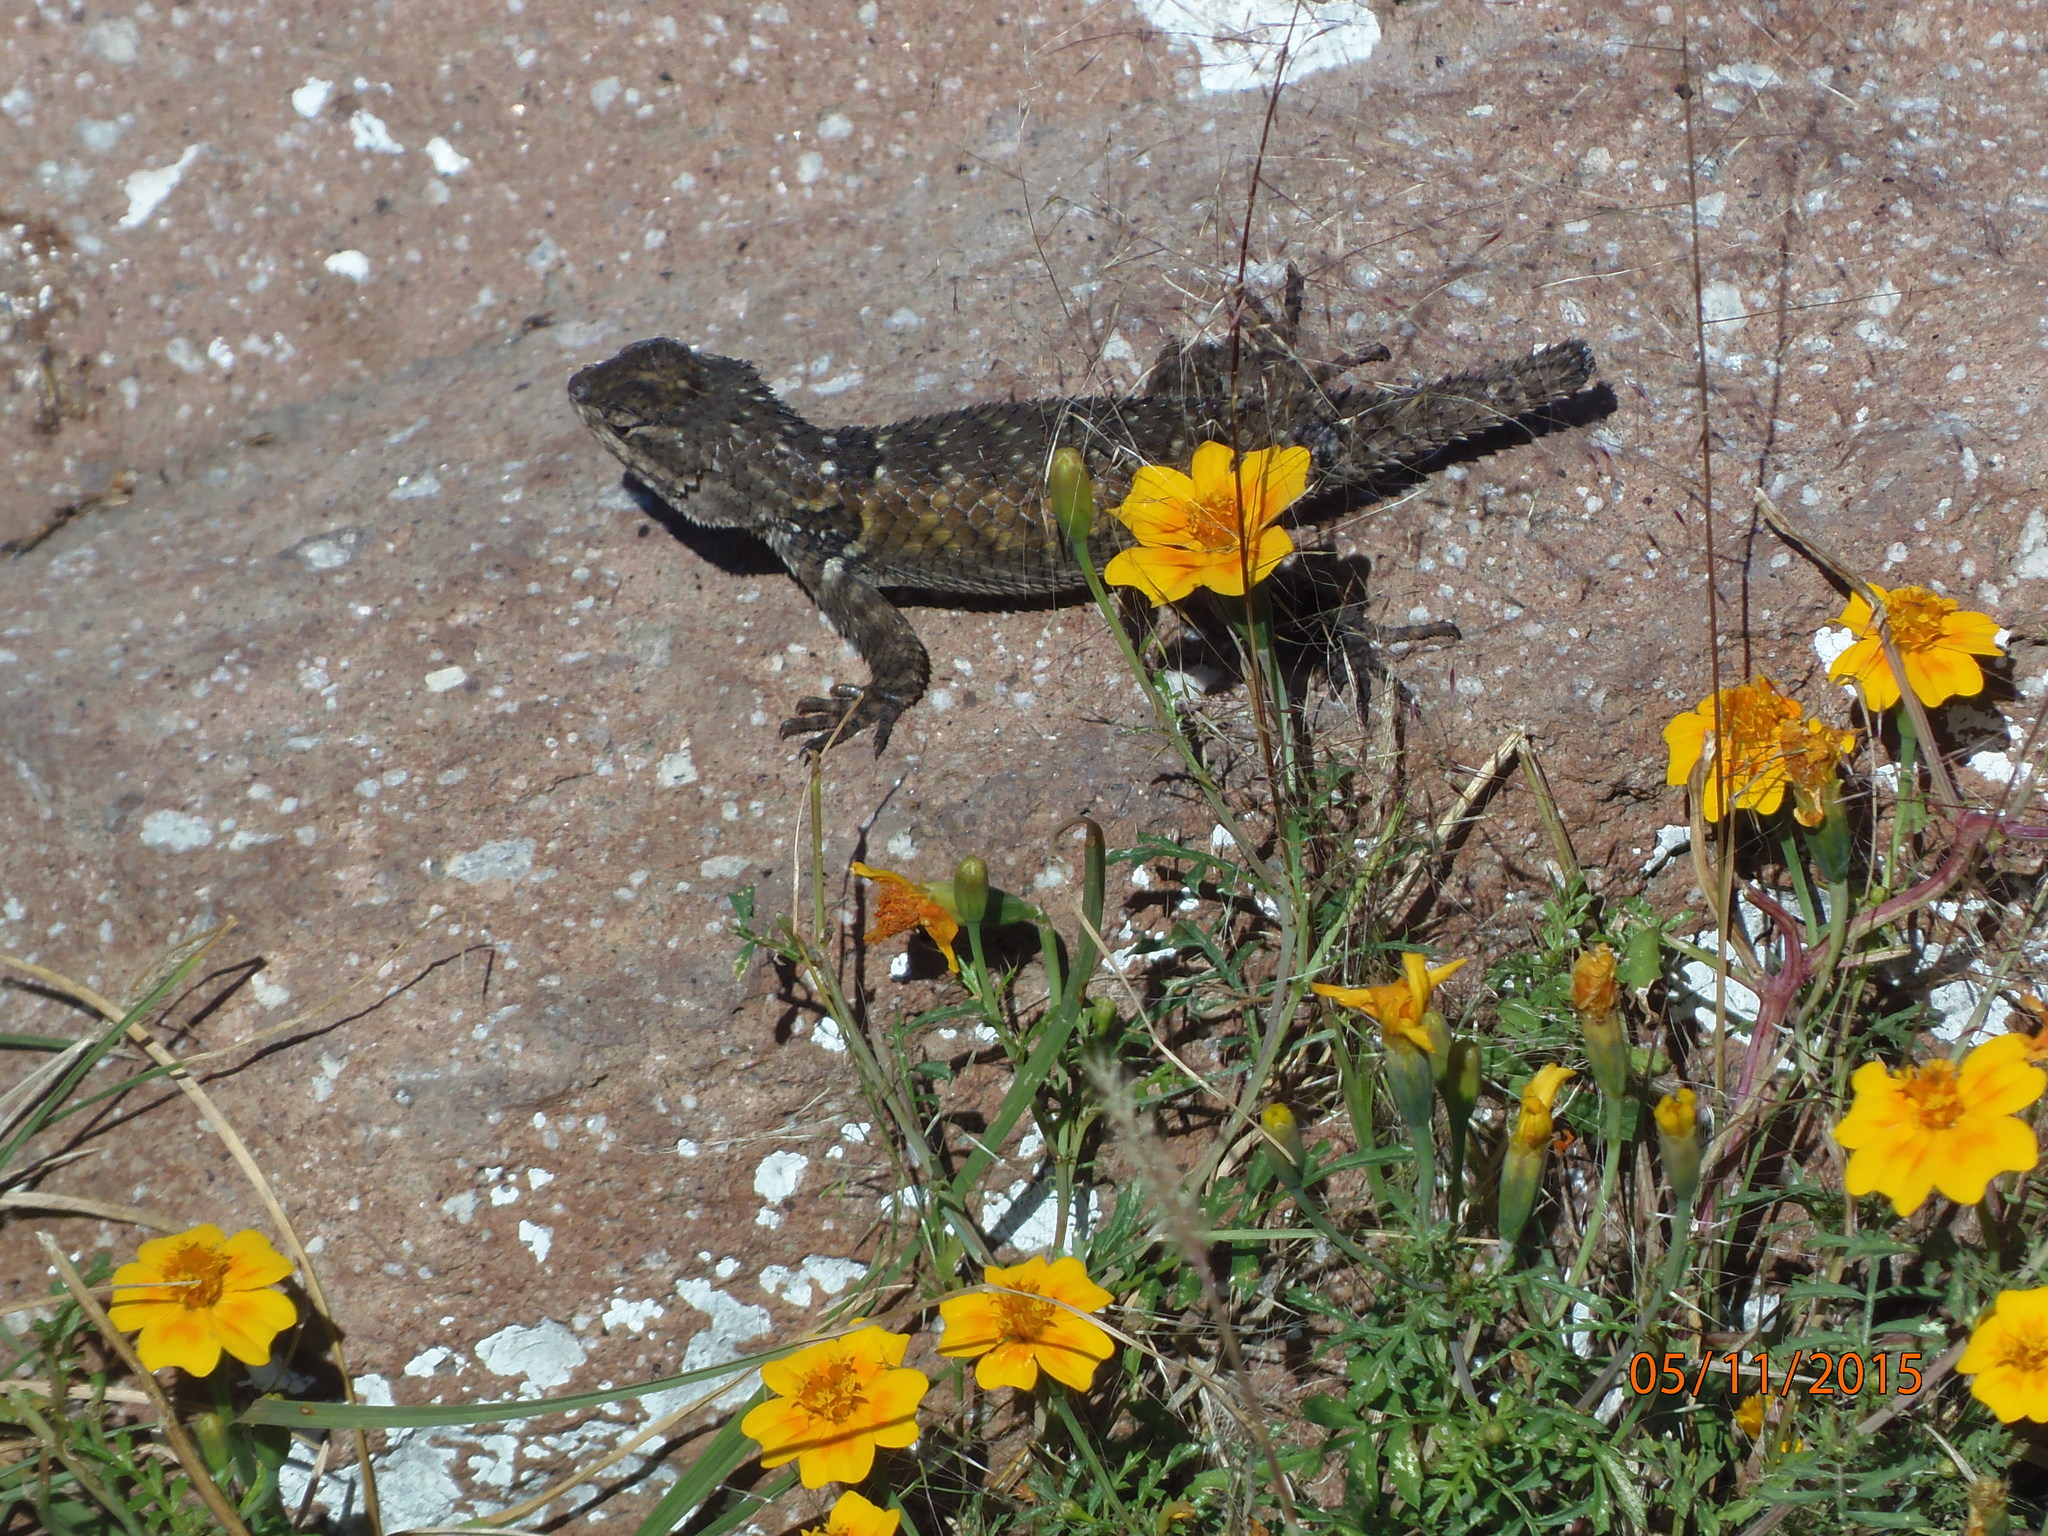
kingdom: Animalia
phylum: Chordata
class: Squamata
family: Phrynosomatidae
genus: Sceloporus
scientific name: Sceloporus torquatus
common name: Central plateau torquate lizard [melanogaster]
